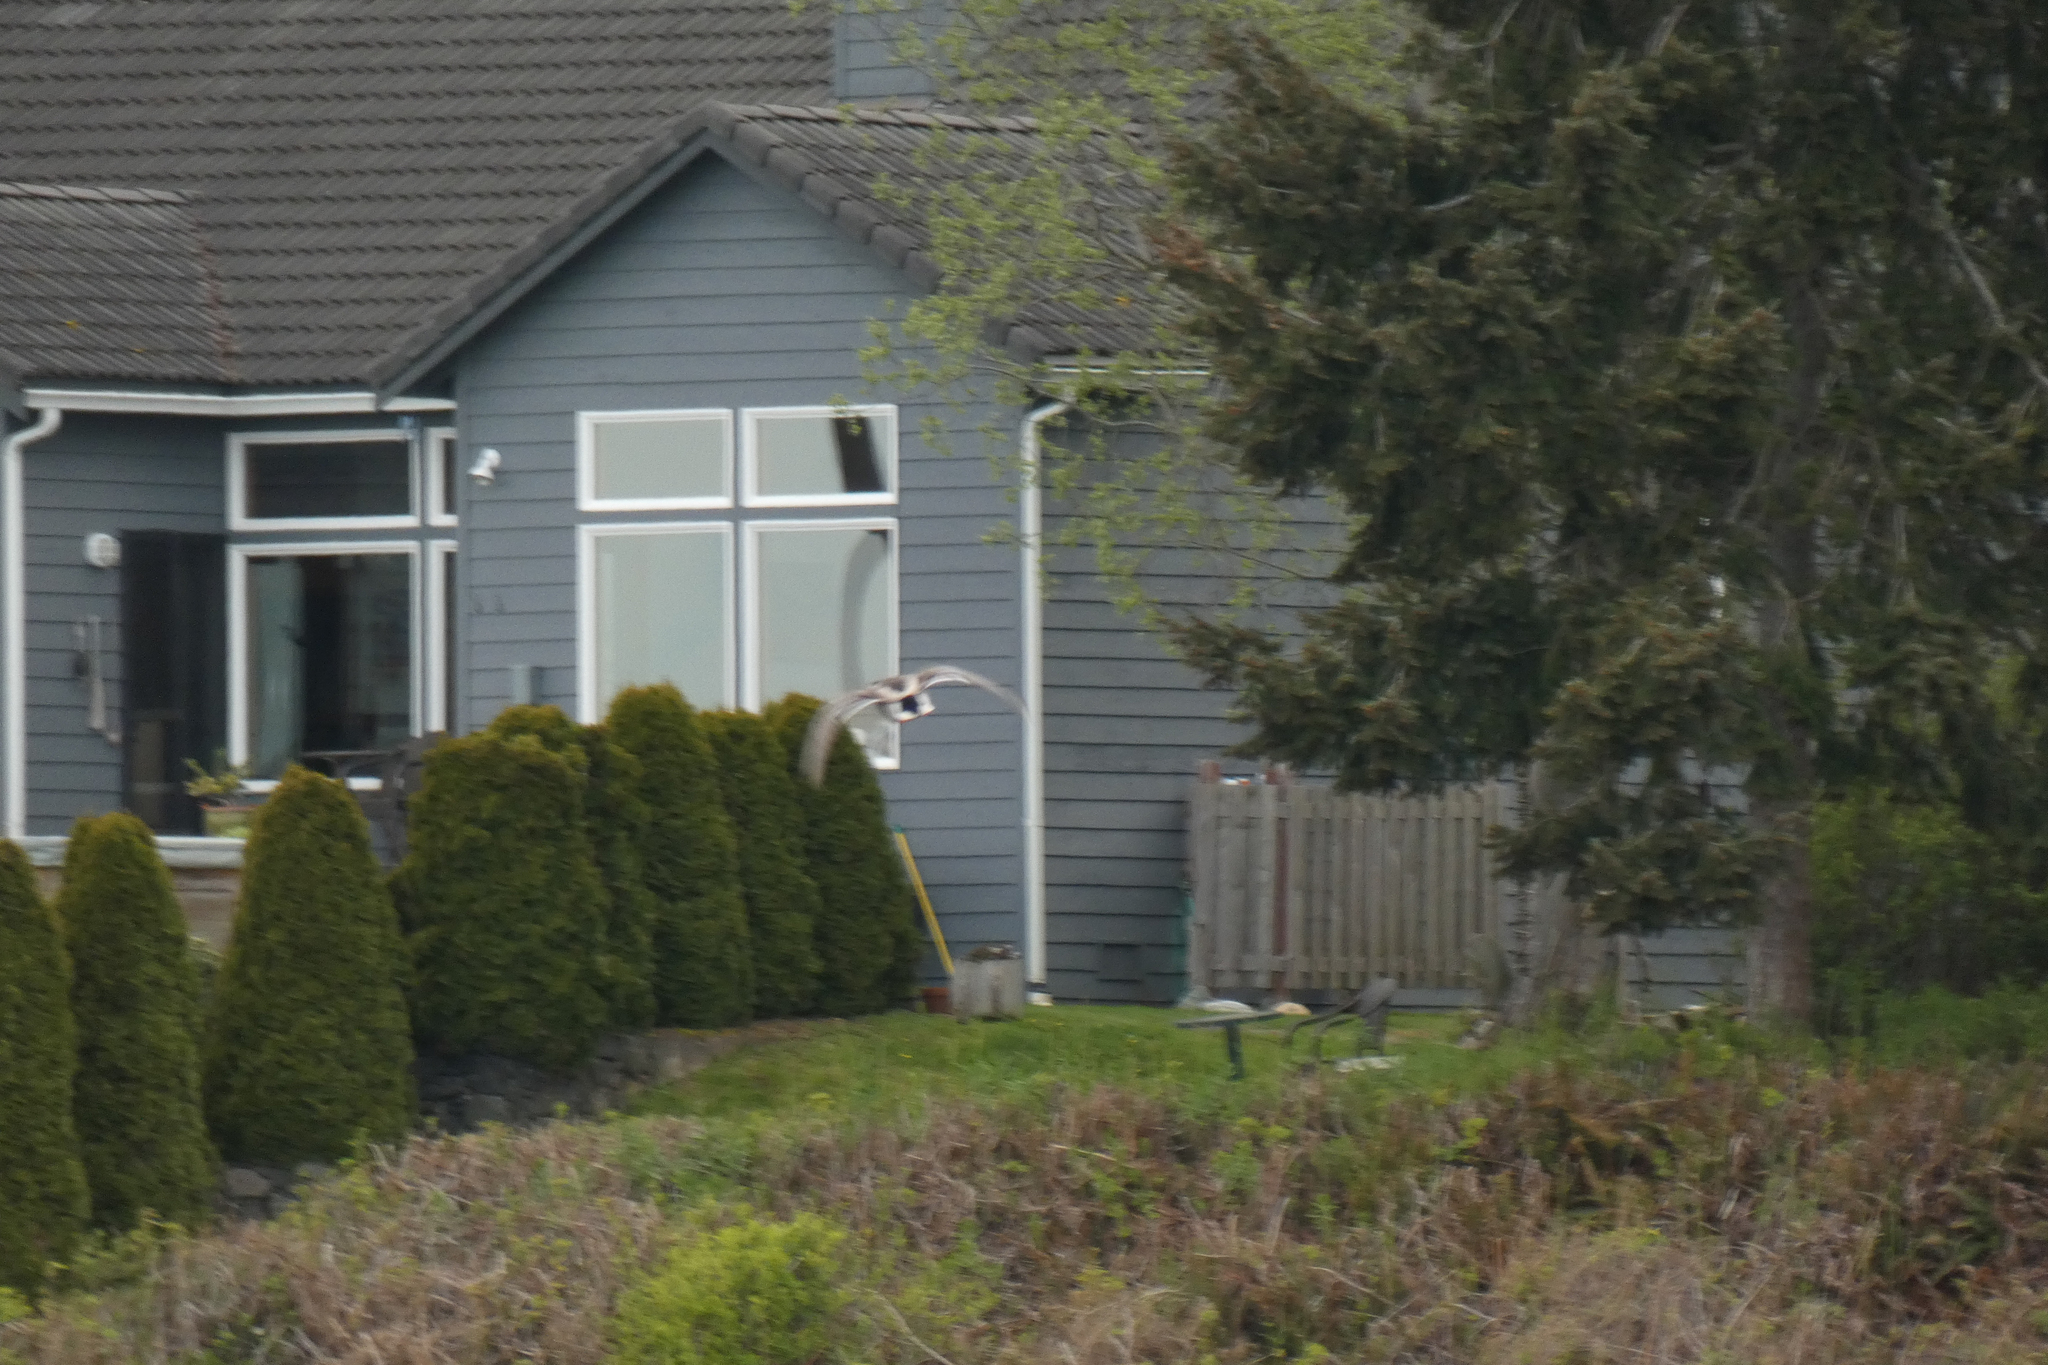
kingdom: Animalia
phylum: Chordata
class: Aves
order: Anseriformes
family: Anatidae
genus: Anas
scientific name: Anas platyrhynchos
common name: Mallard
